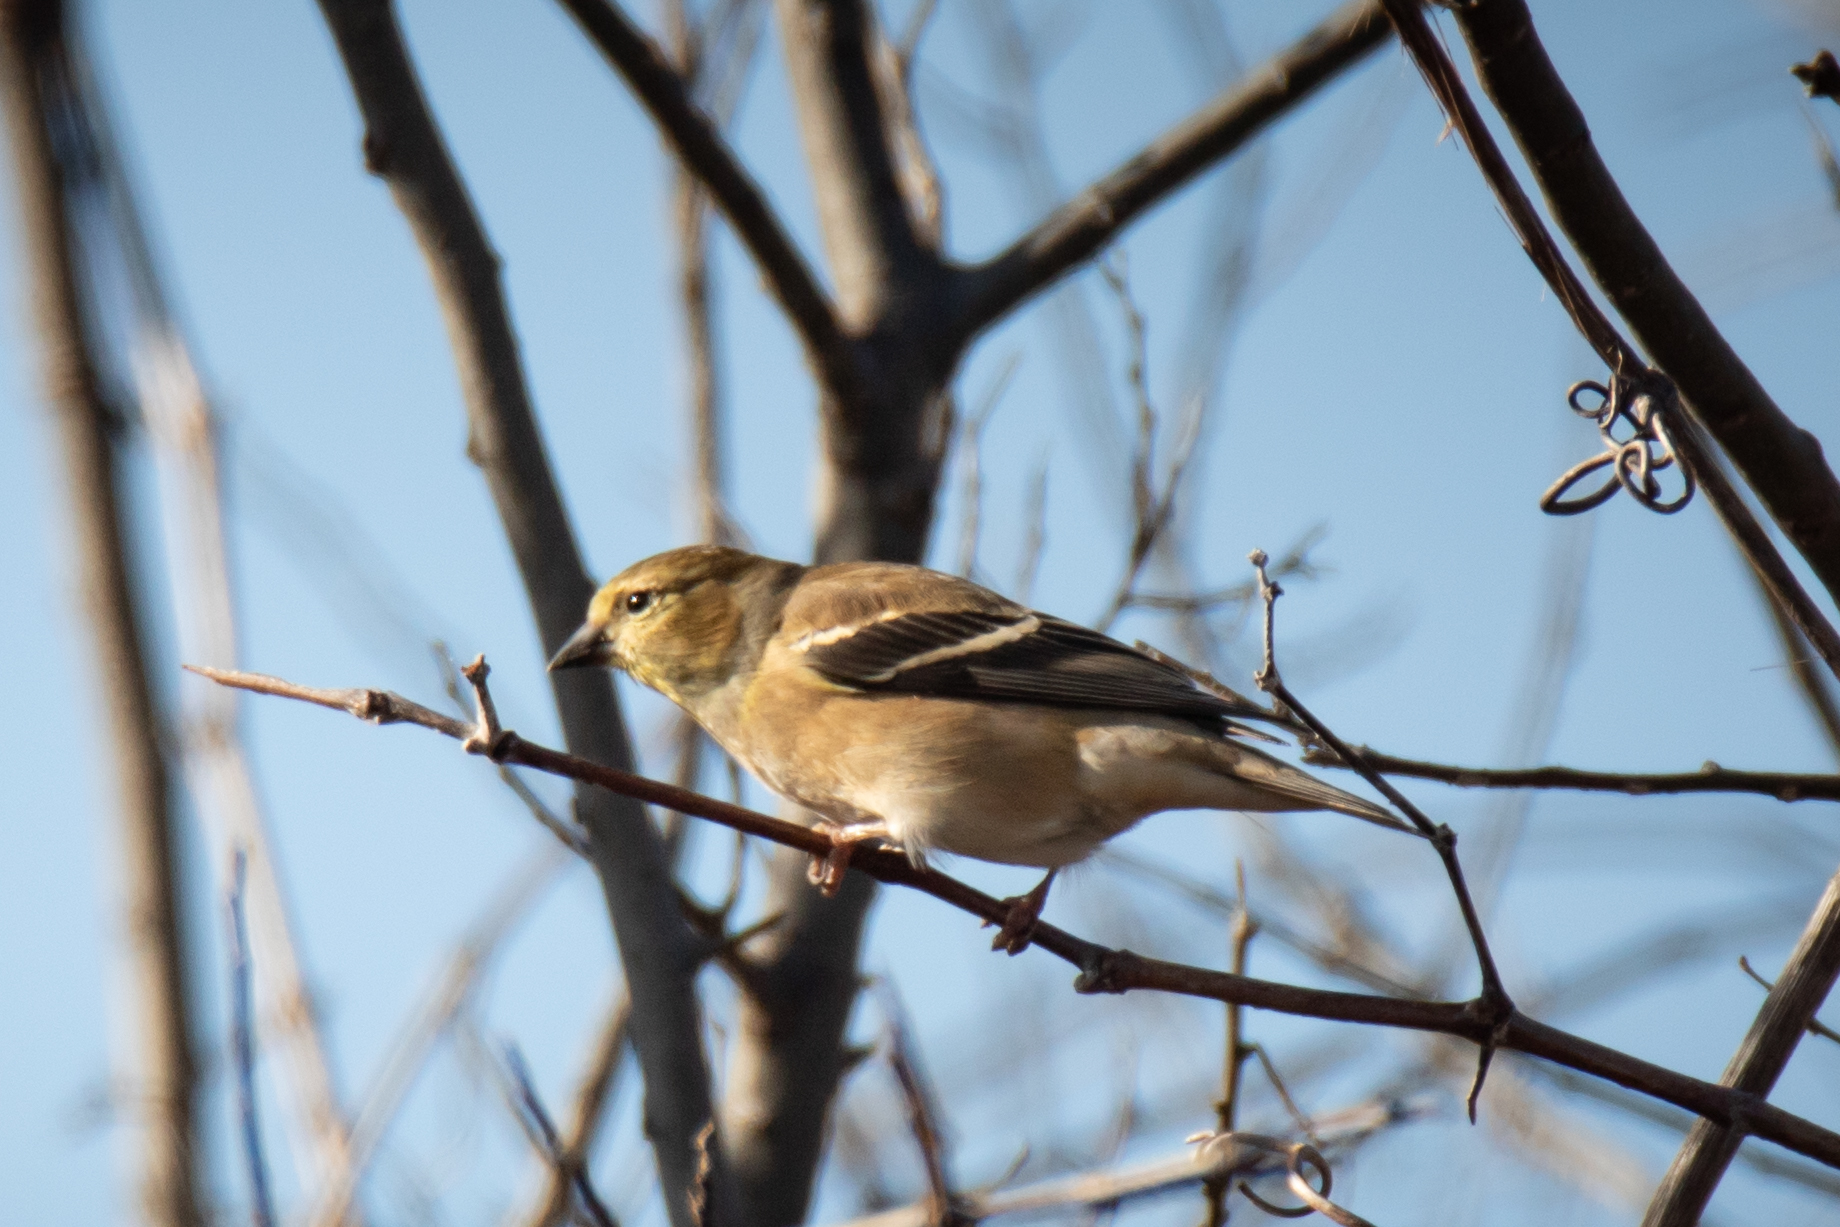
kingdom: Animalia
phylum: Chordata
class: Aves
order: Passeriformes
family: Fringillidae
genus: Spinus
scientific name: Spinus tristis
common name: American goldfinch
